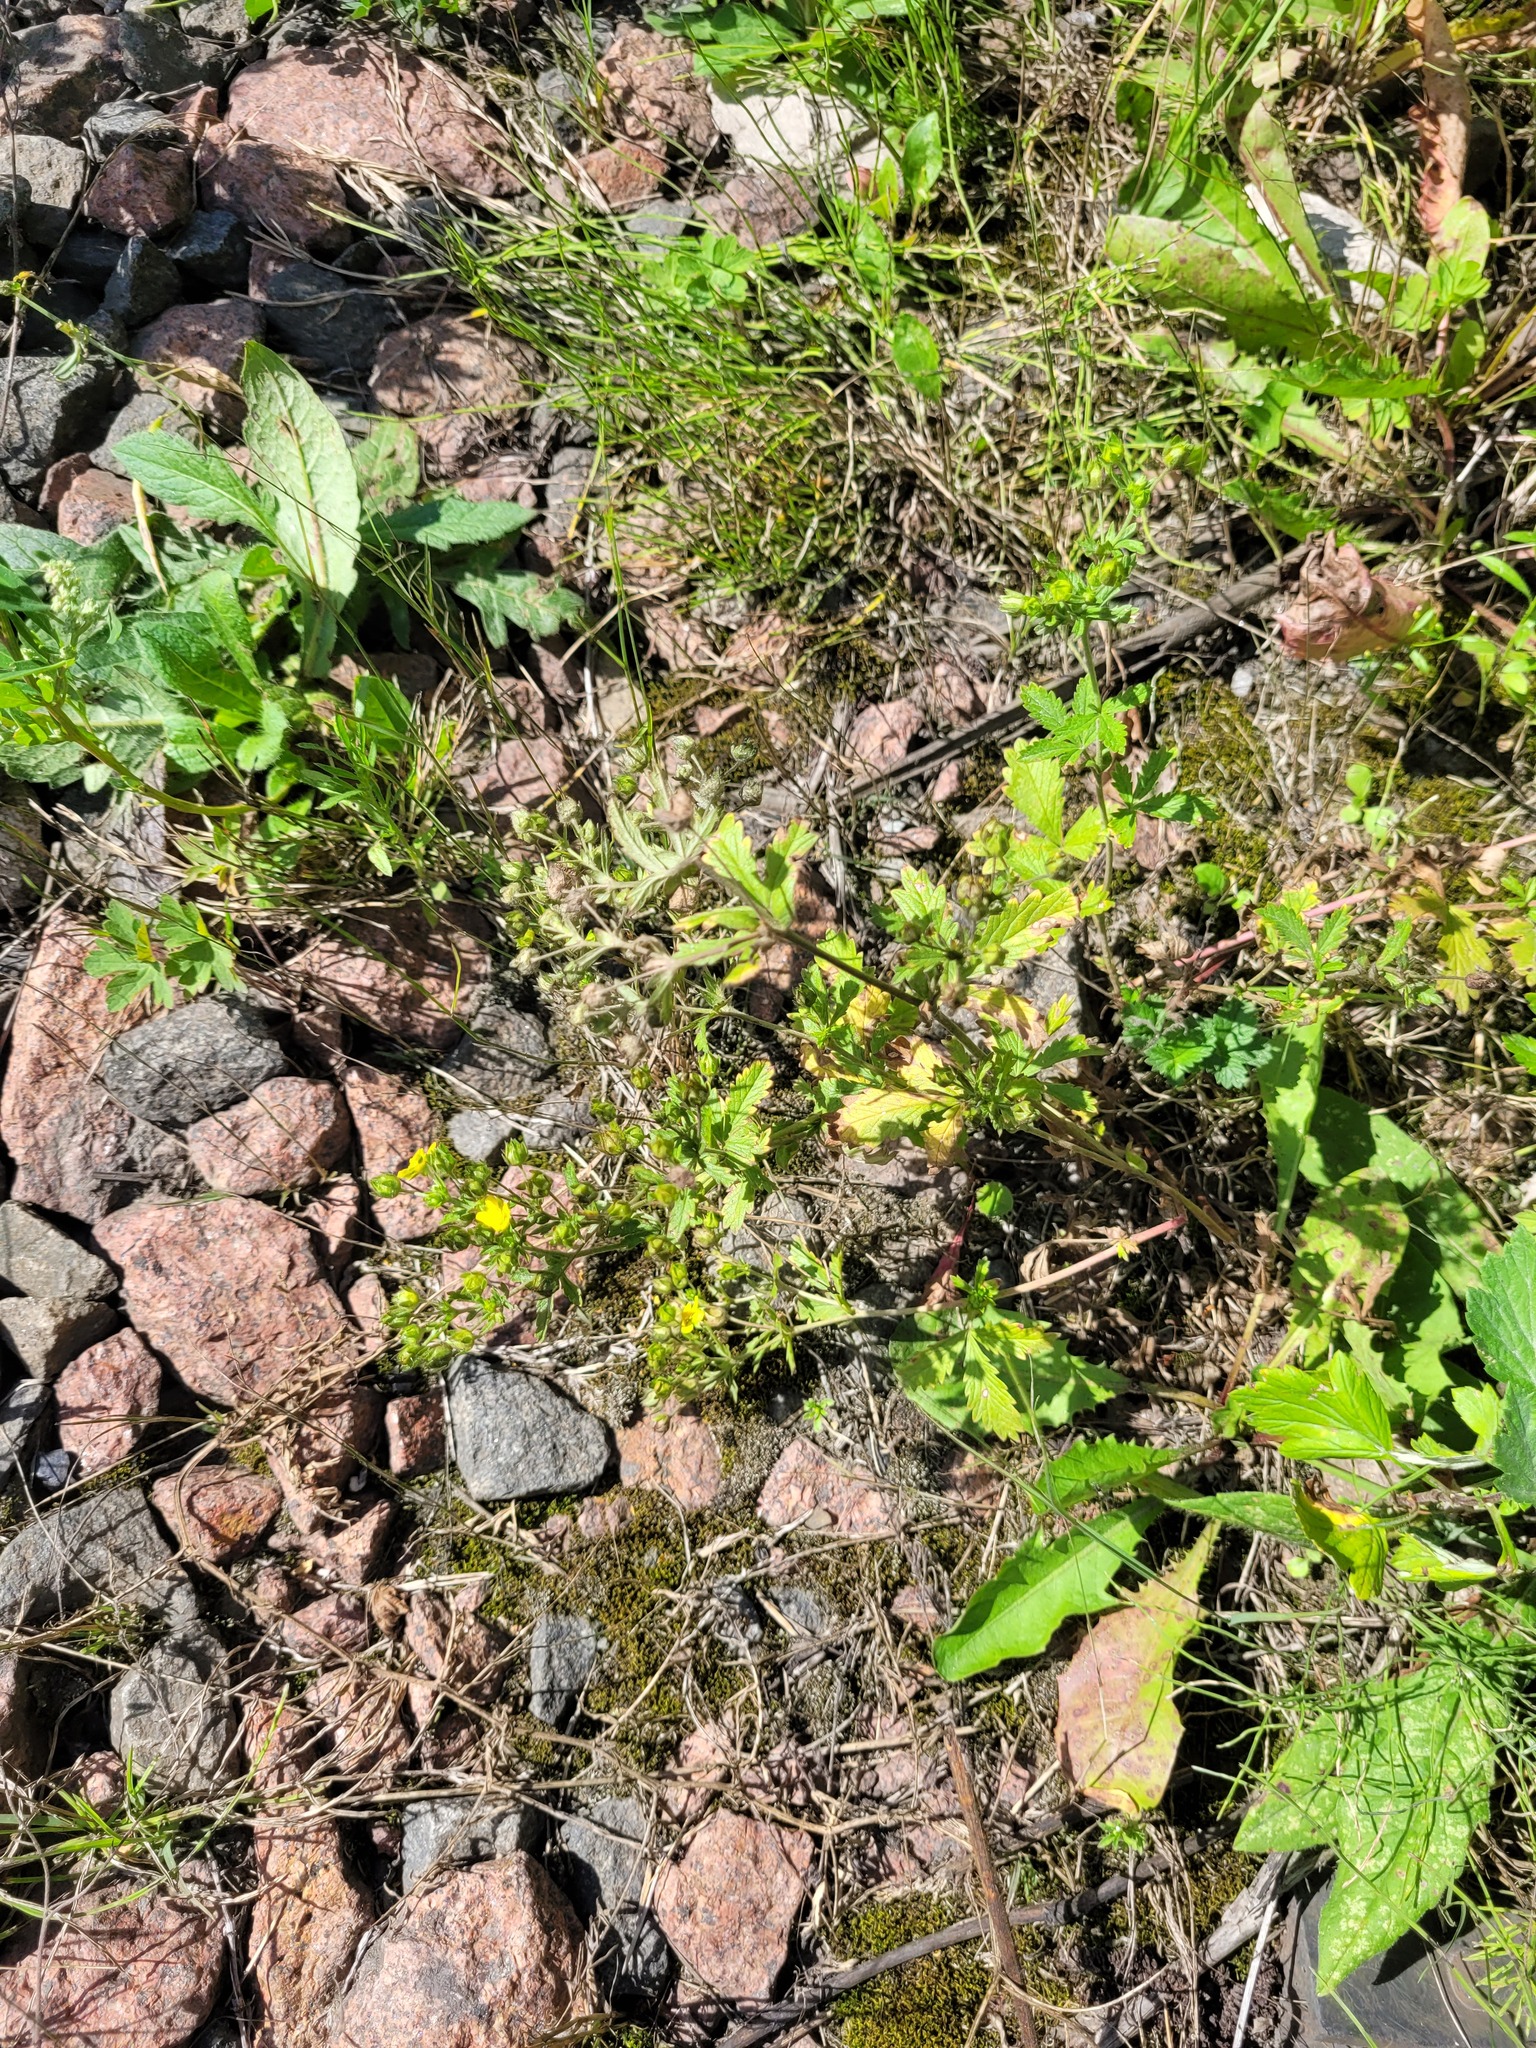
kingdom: Plantae
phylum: Tracheophyta
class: Magnoliopsida
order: Rosales
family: Rosaceae
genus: Potentilla
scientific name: Potentilla intermedia
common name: Downy cinquefoil
